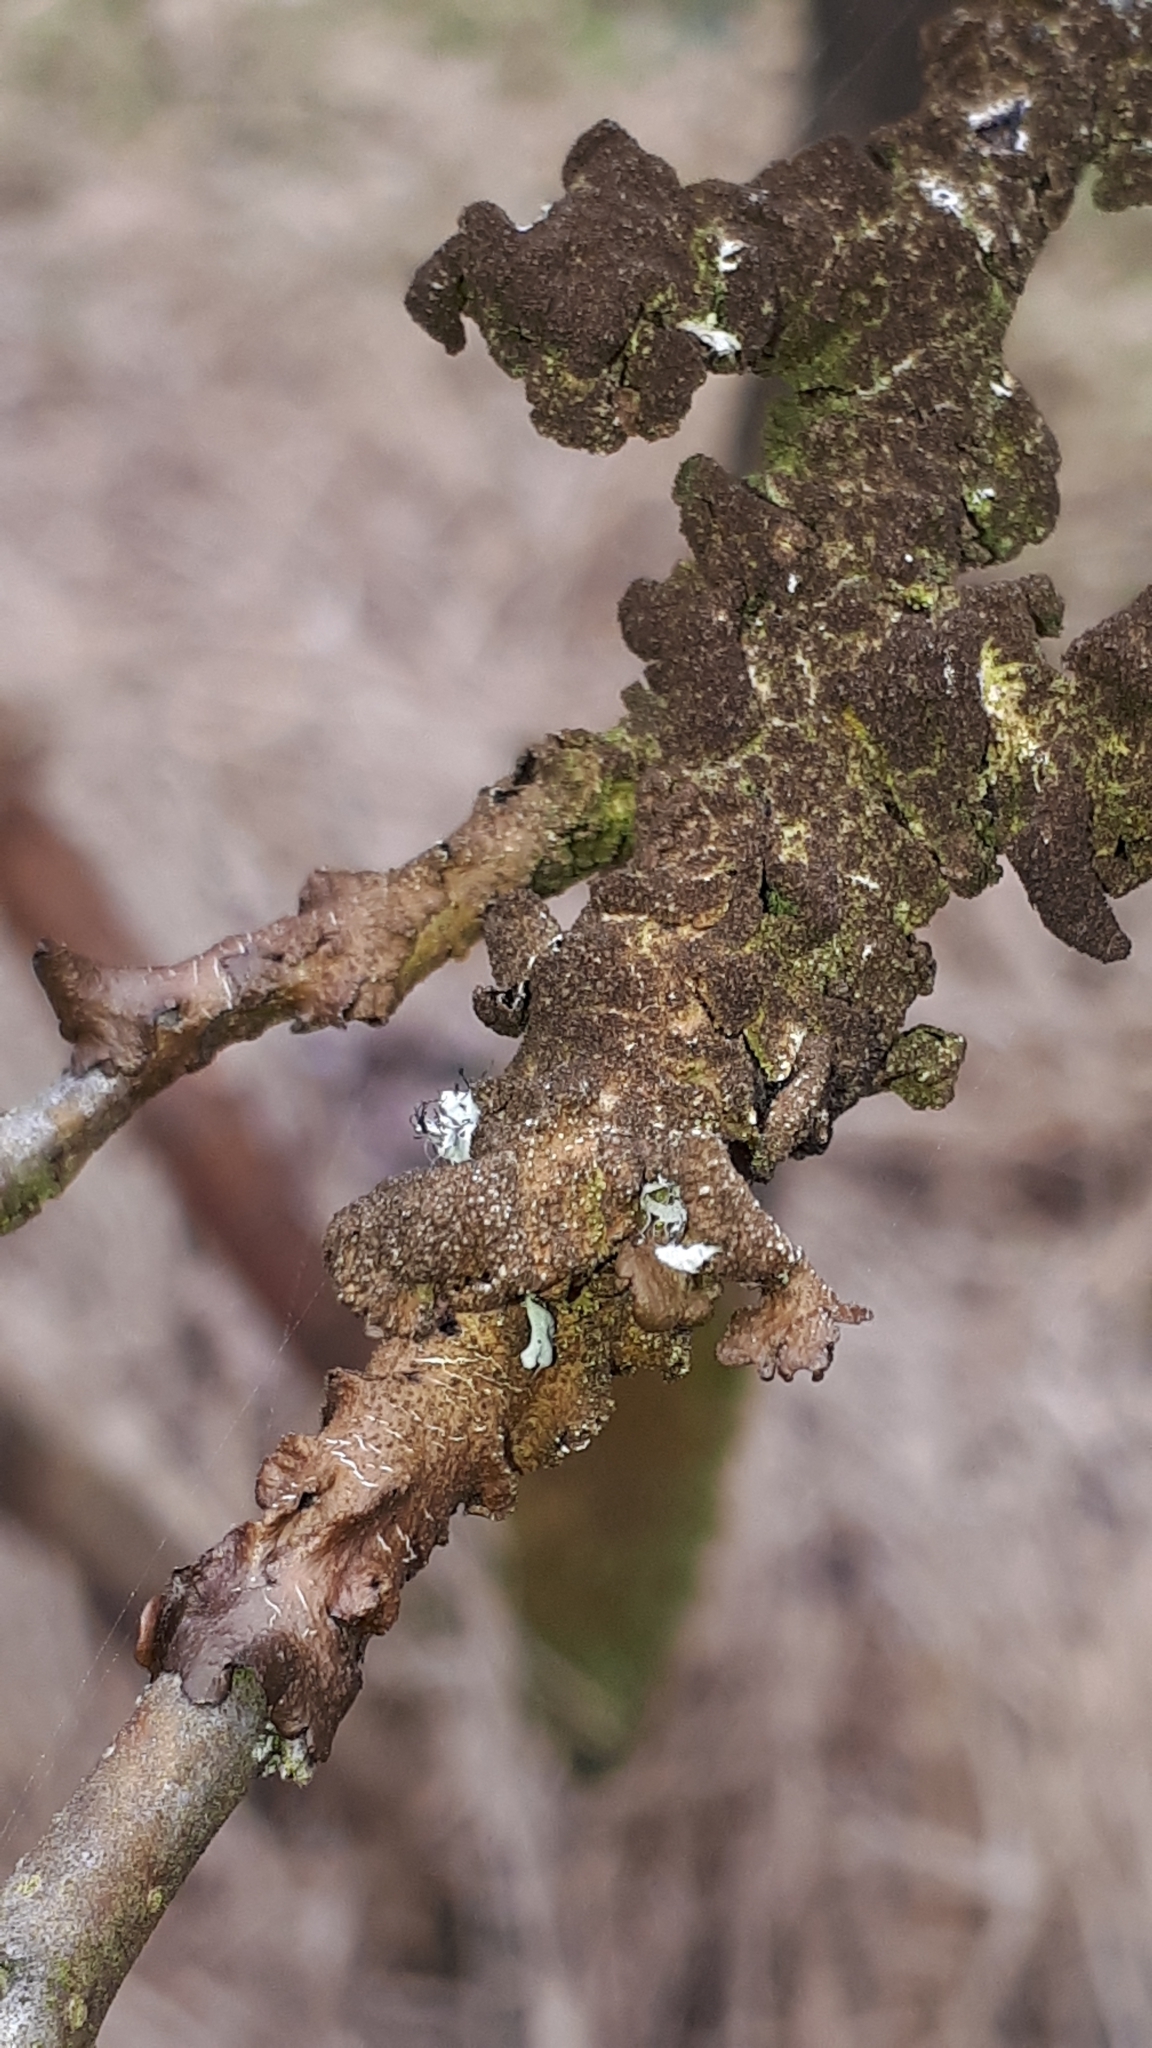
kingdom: Fungi
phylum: Ascomycota
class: Lecanoromycetes
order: Lecanorales
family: Parmeliaceae
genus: Melanelixia
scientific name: Melanelixia subaurifera
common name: Abraded camouflage lichen
